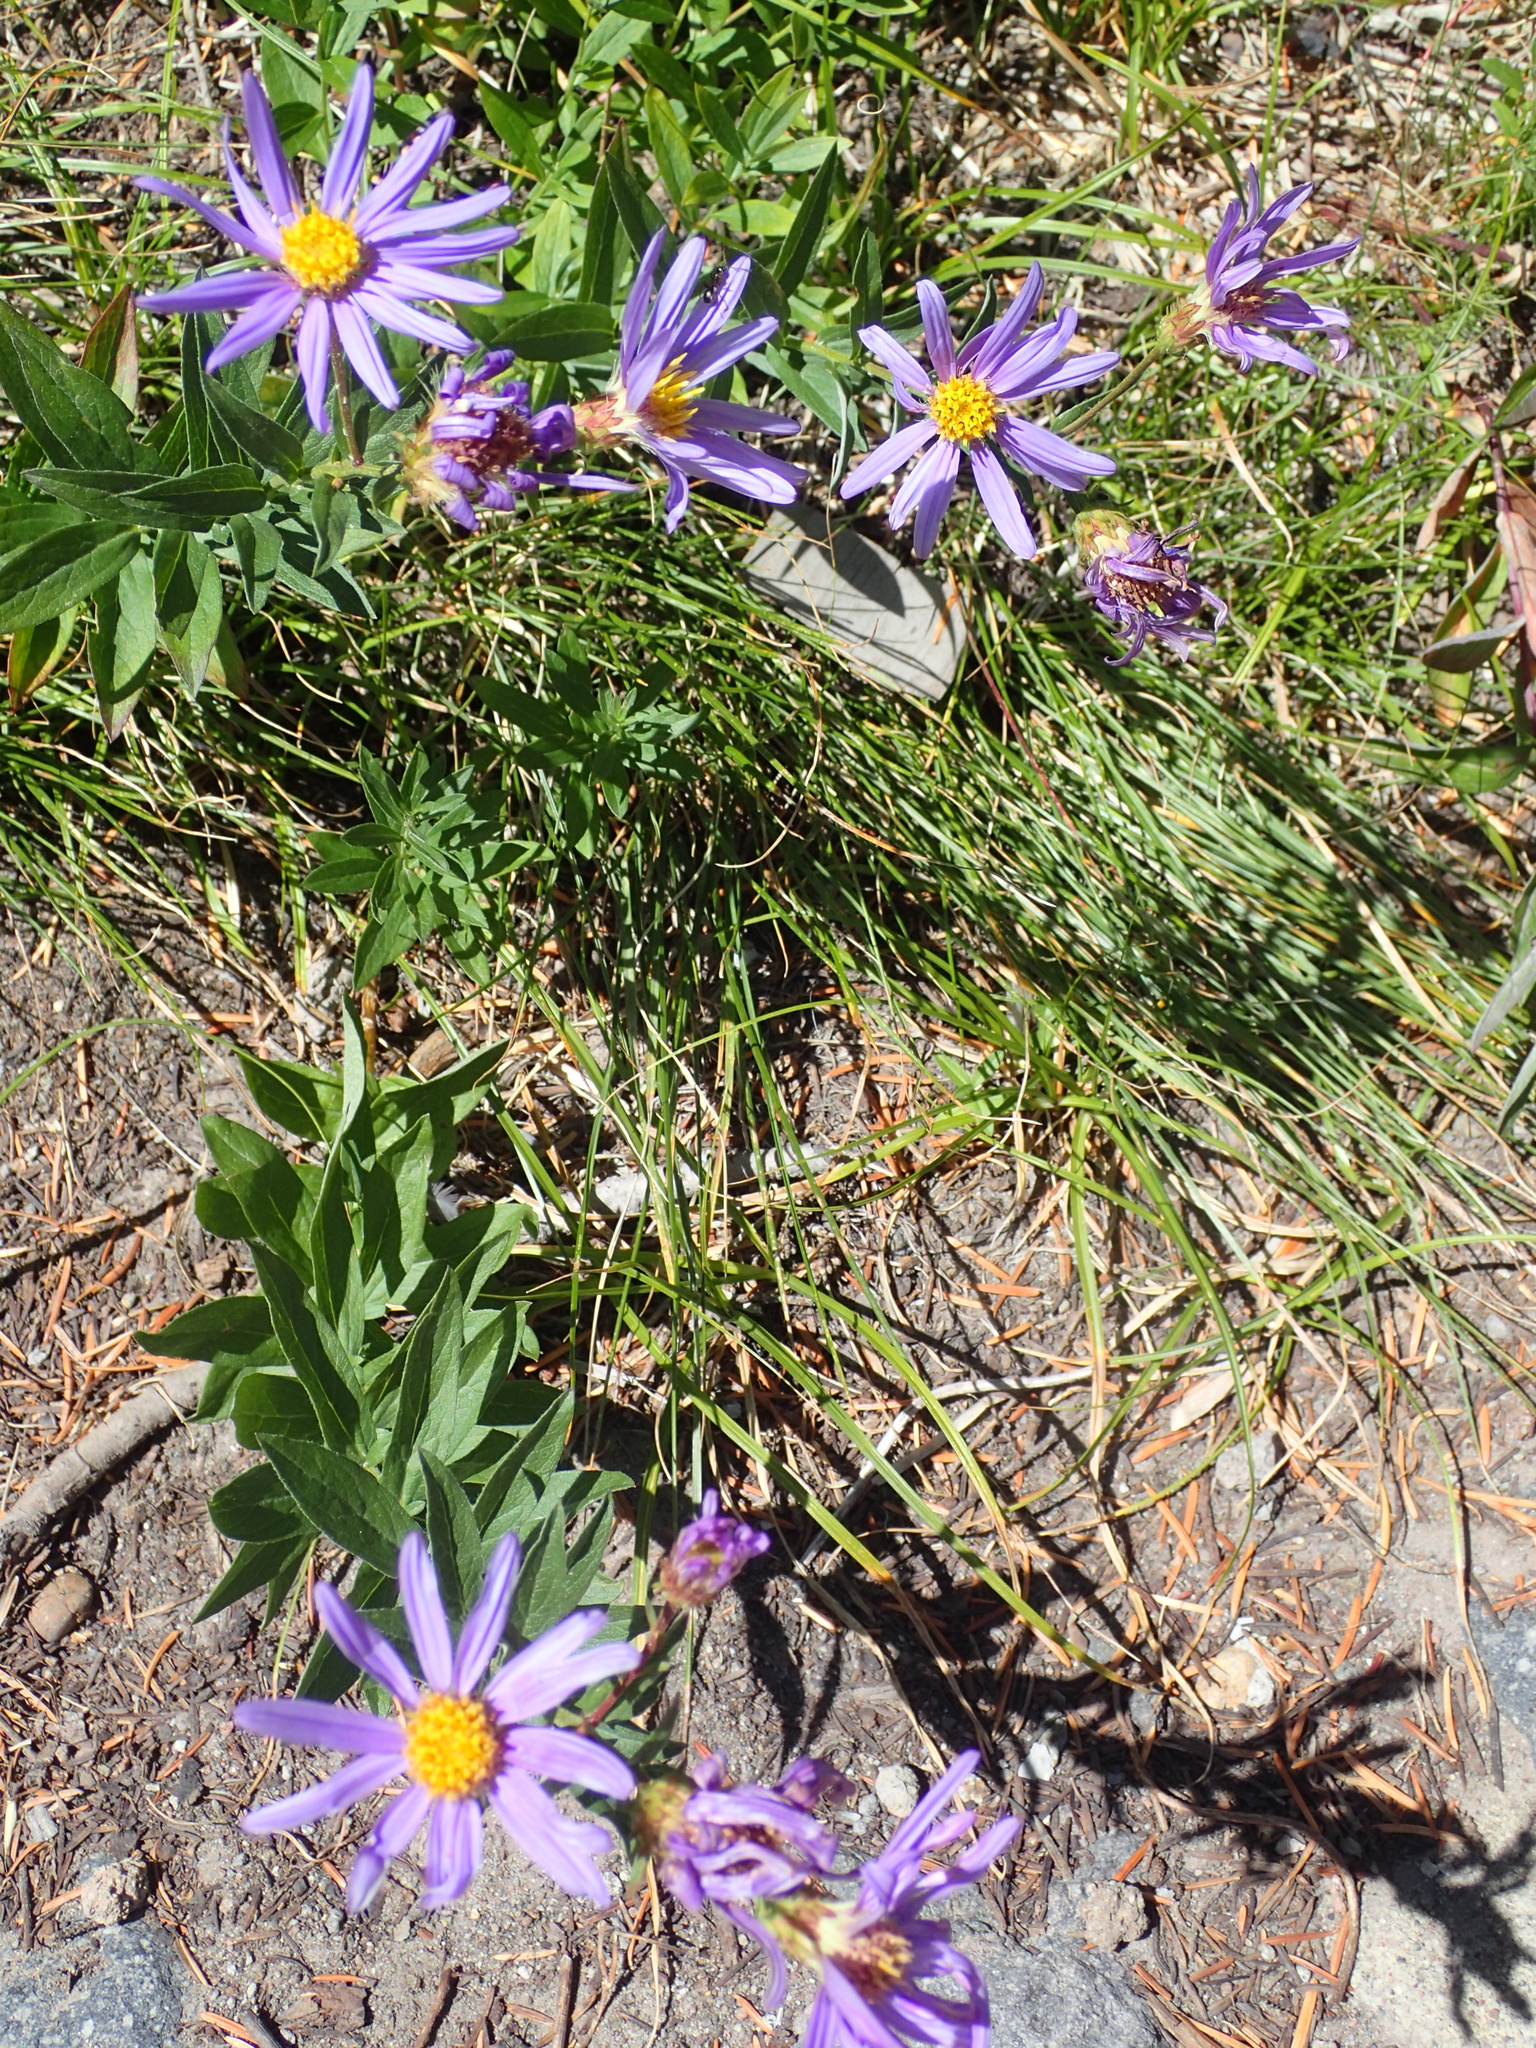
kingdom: Plantae
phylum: Tracheophyta
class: Magnoliopsida
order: Asterales
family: Asteraceae
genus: Eucephalus
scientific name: Eucephalus ledophyllus
